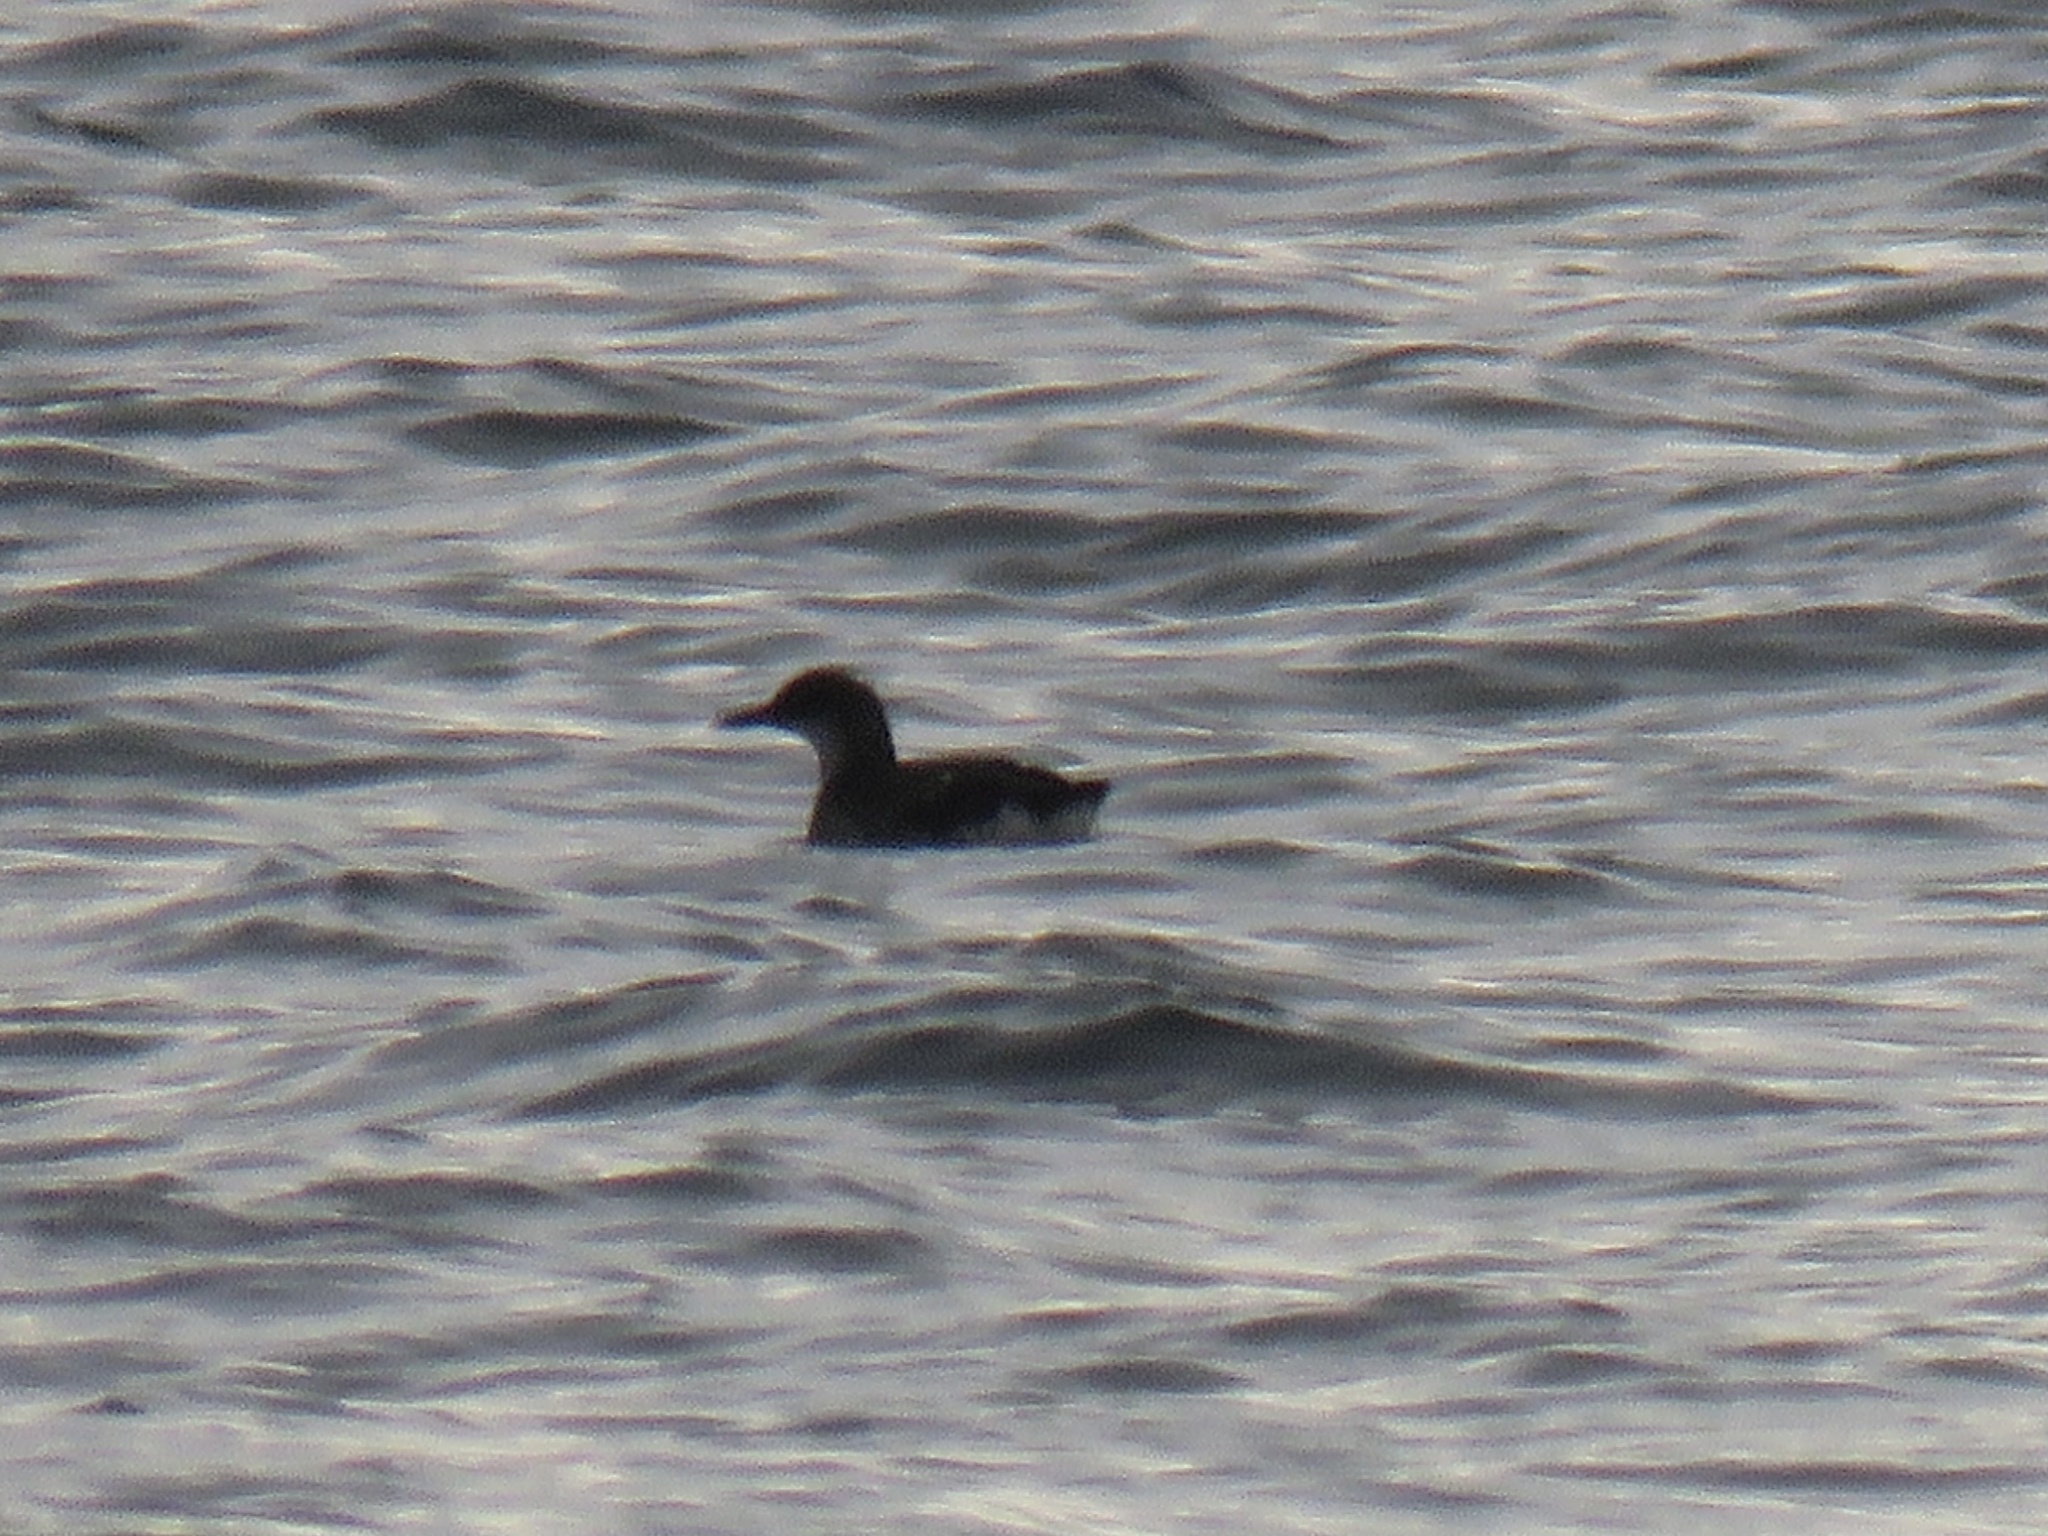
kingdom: Animalia
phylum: Chordata
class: Aves
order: Charadriiformes
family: Alcidae
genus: Cepphus
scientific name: Cepphus columba
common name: Pigeon guillemot
